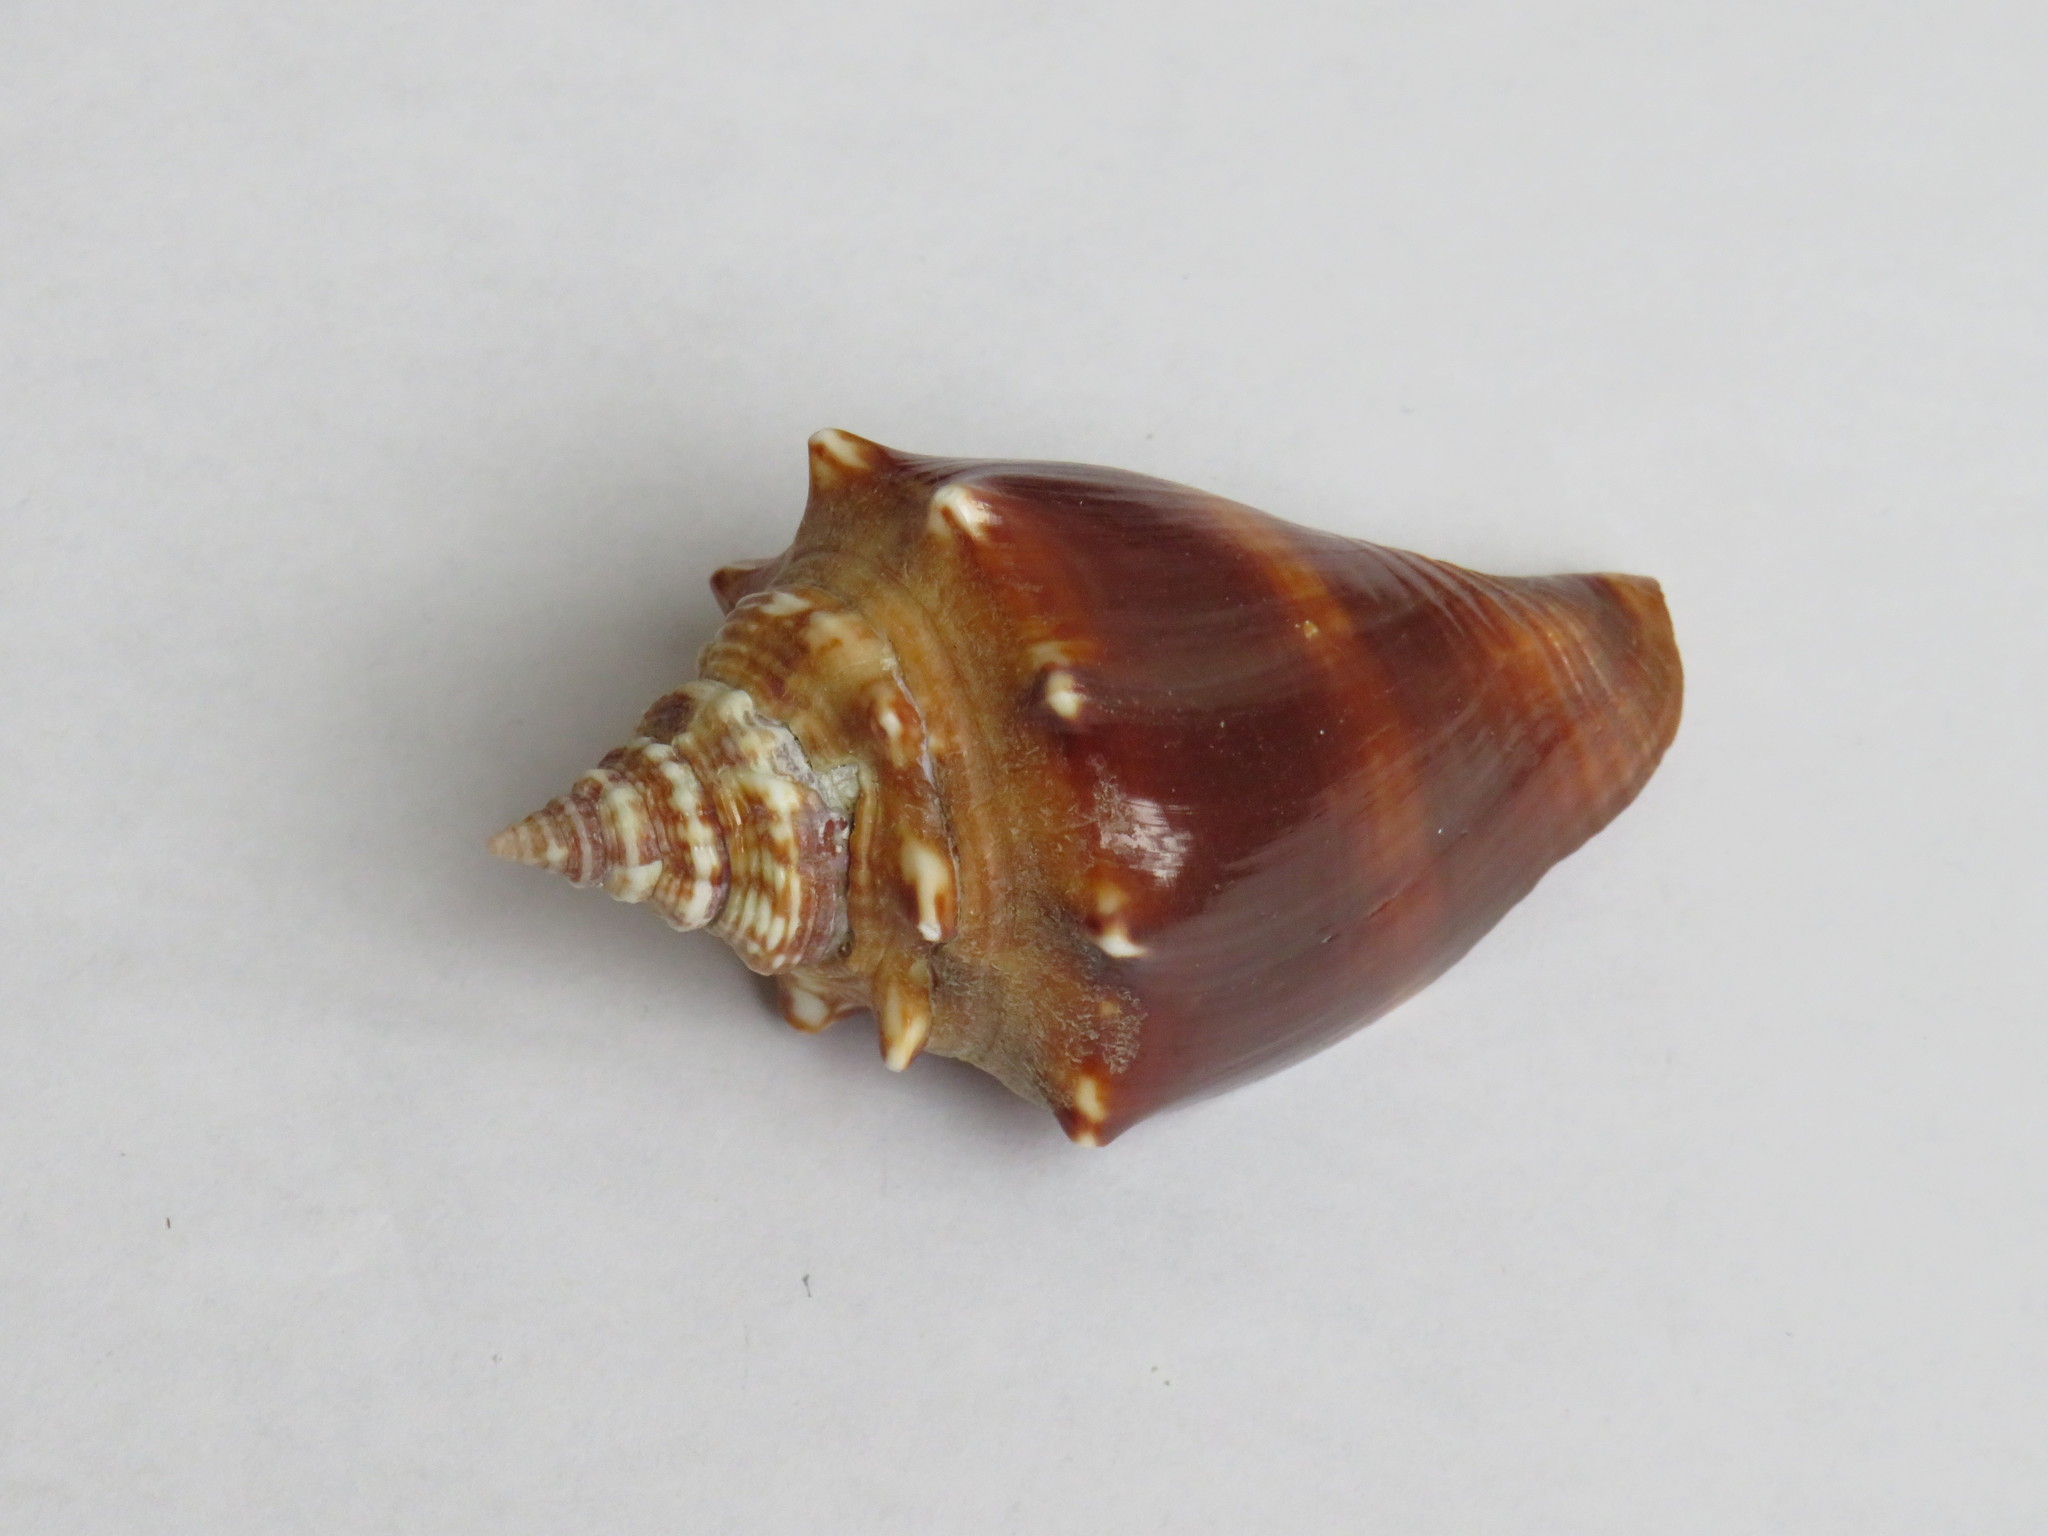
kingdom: Animalia
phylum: Mollusca
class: Gastropoda
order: Littorinimorpha
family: Strombidae
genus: Strombus
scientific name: Strombus alatus
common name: Florida fighting conch
